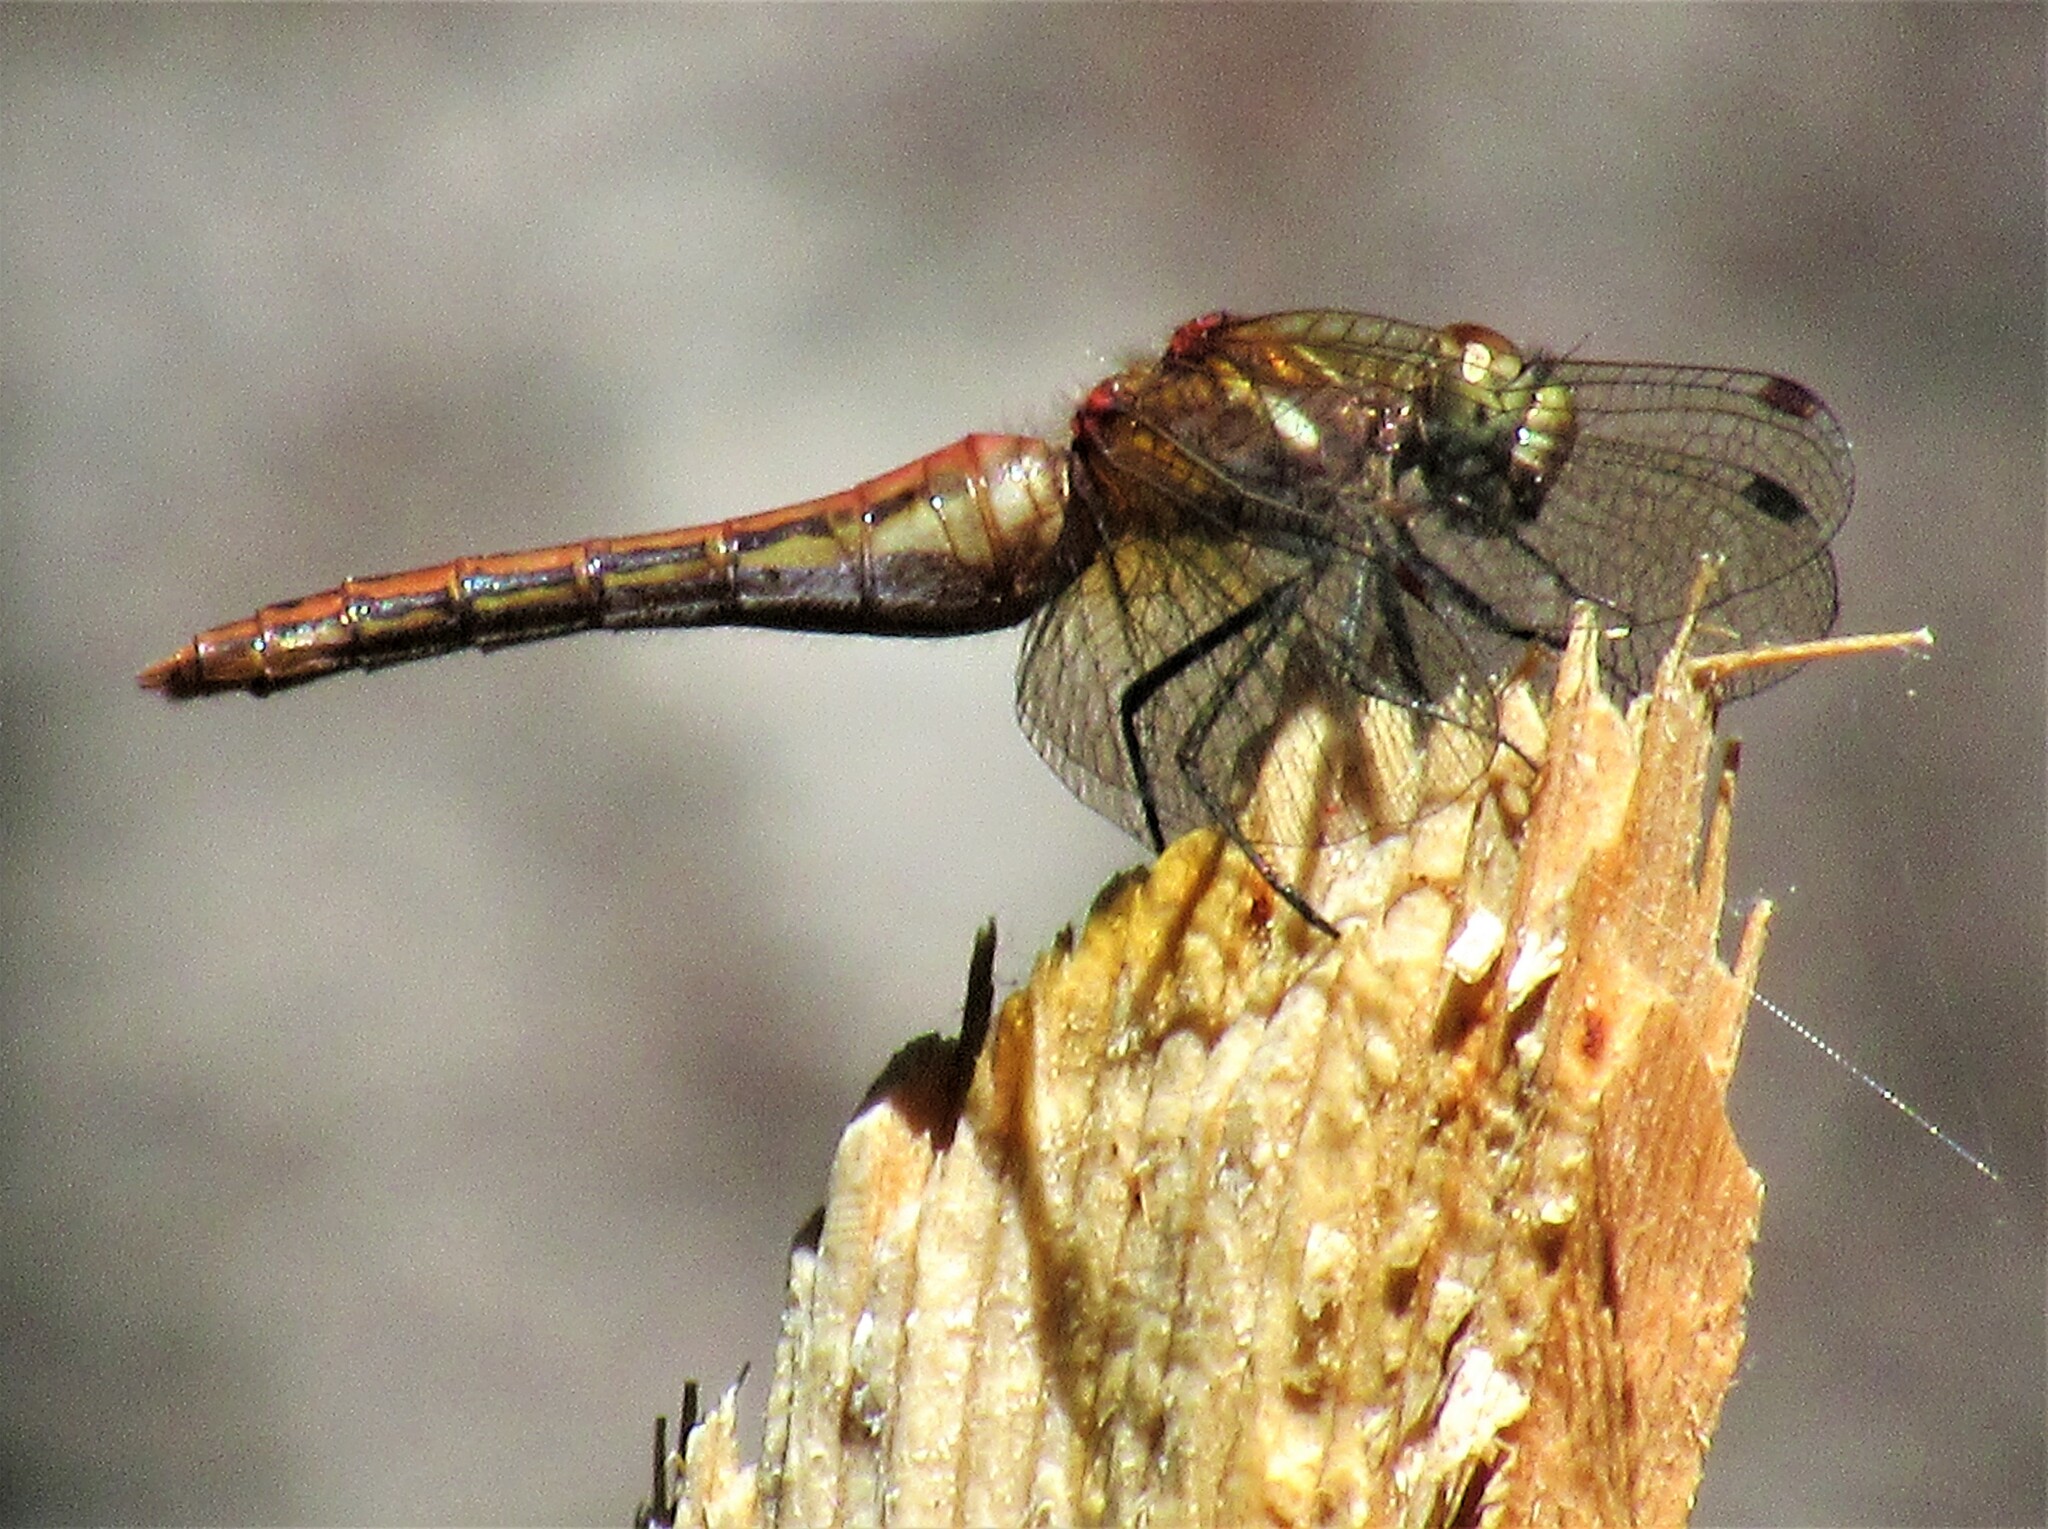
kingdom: Animalia
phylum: Arthropoda
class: Insecta
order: Odonata
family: Libellulidae
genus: Sympetrum
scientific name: Sympetrum pallipes
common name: Striped meadowhawk
